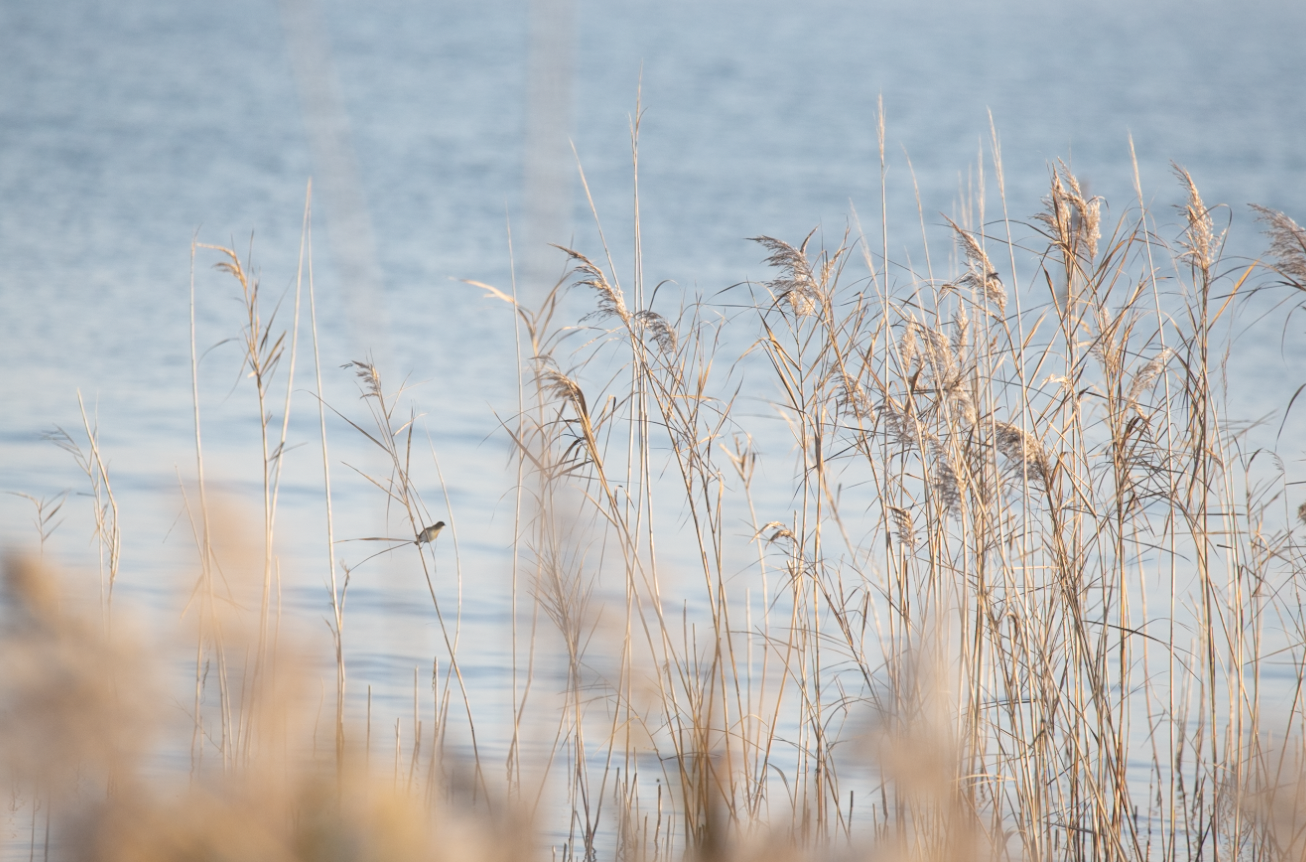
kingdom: Animalia
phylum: Chordata
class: Aves
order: Passeriformes
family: Phylloscopidae
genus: Phylloscopus
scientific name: Phylloscopus collybita
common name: Common chiffchaff
